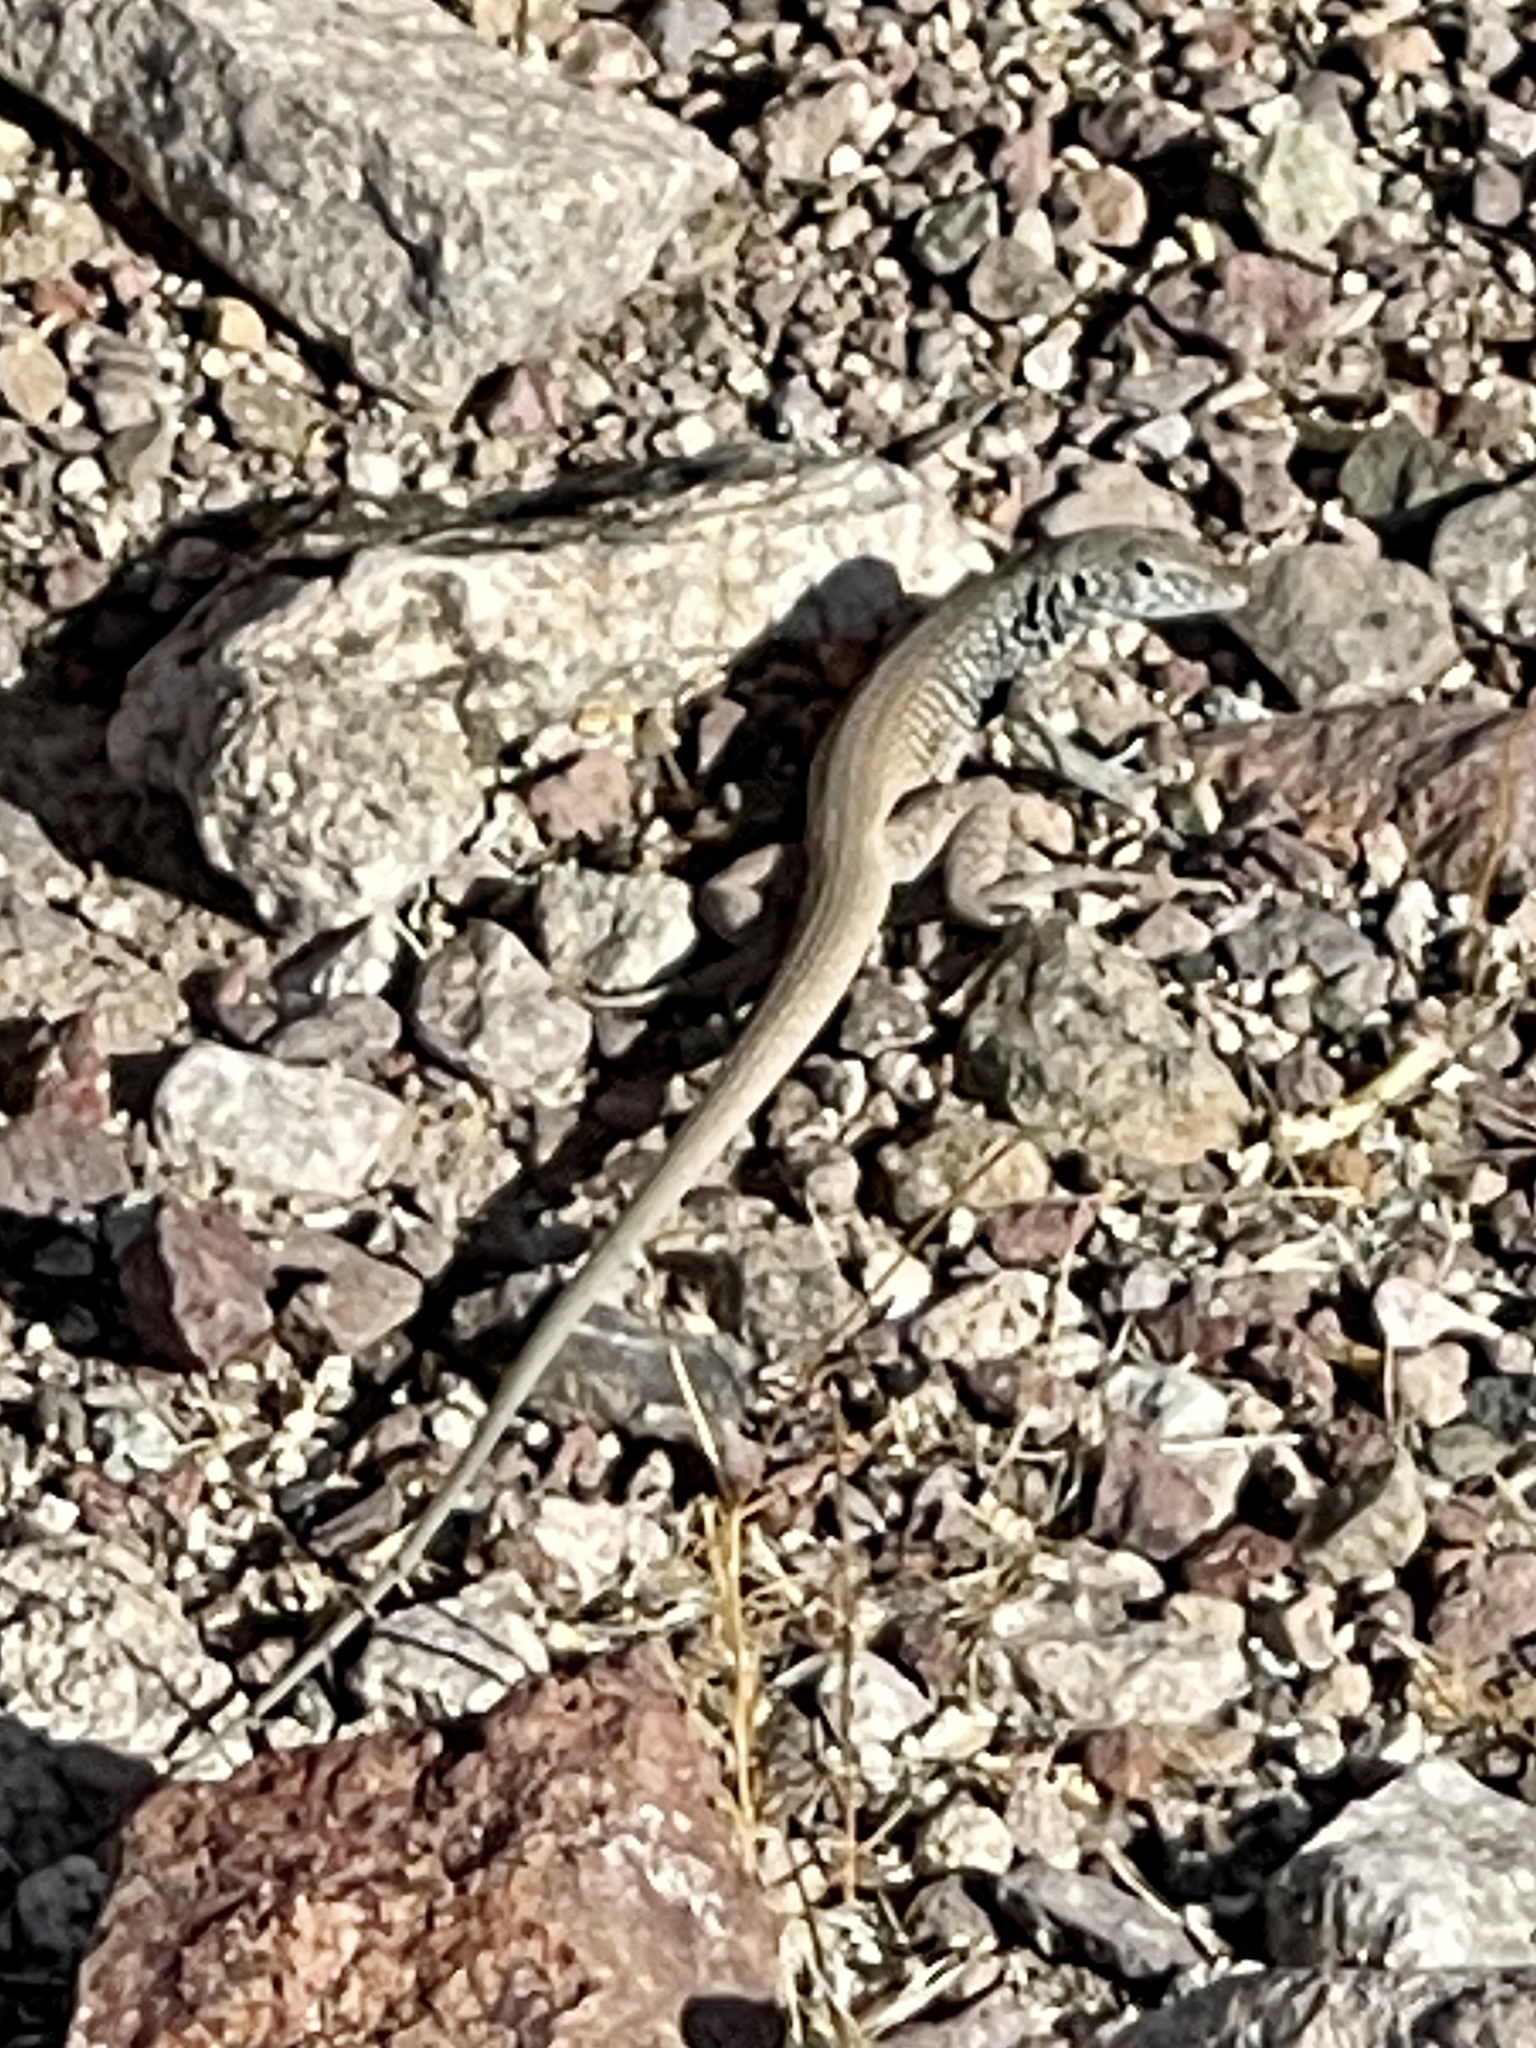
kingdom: Animalia
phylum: Chordata
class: Squamata
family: Teiidae
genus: Aspidoscelis
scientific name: Aspidoscelis tigris
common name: Tiger whiptail
